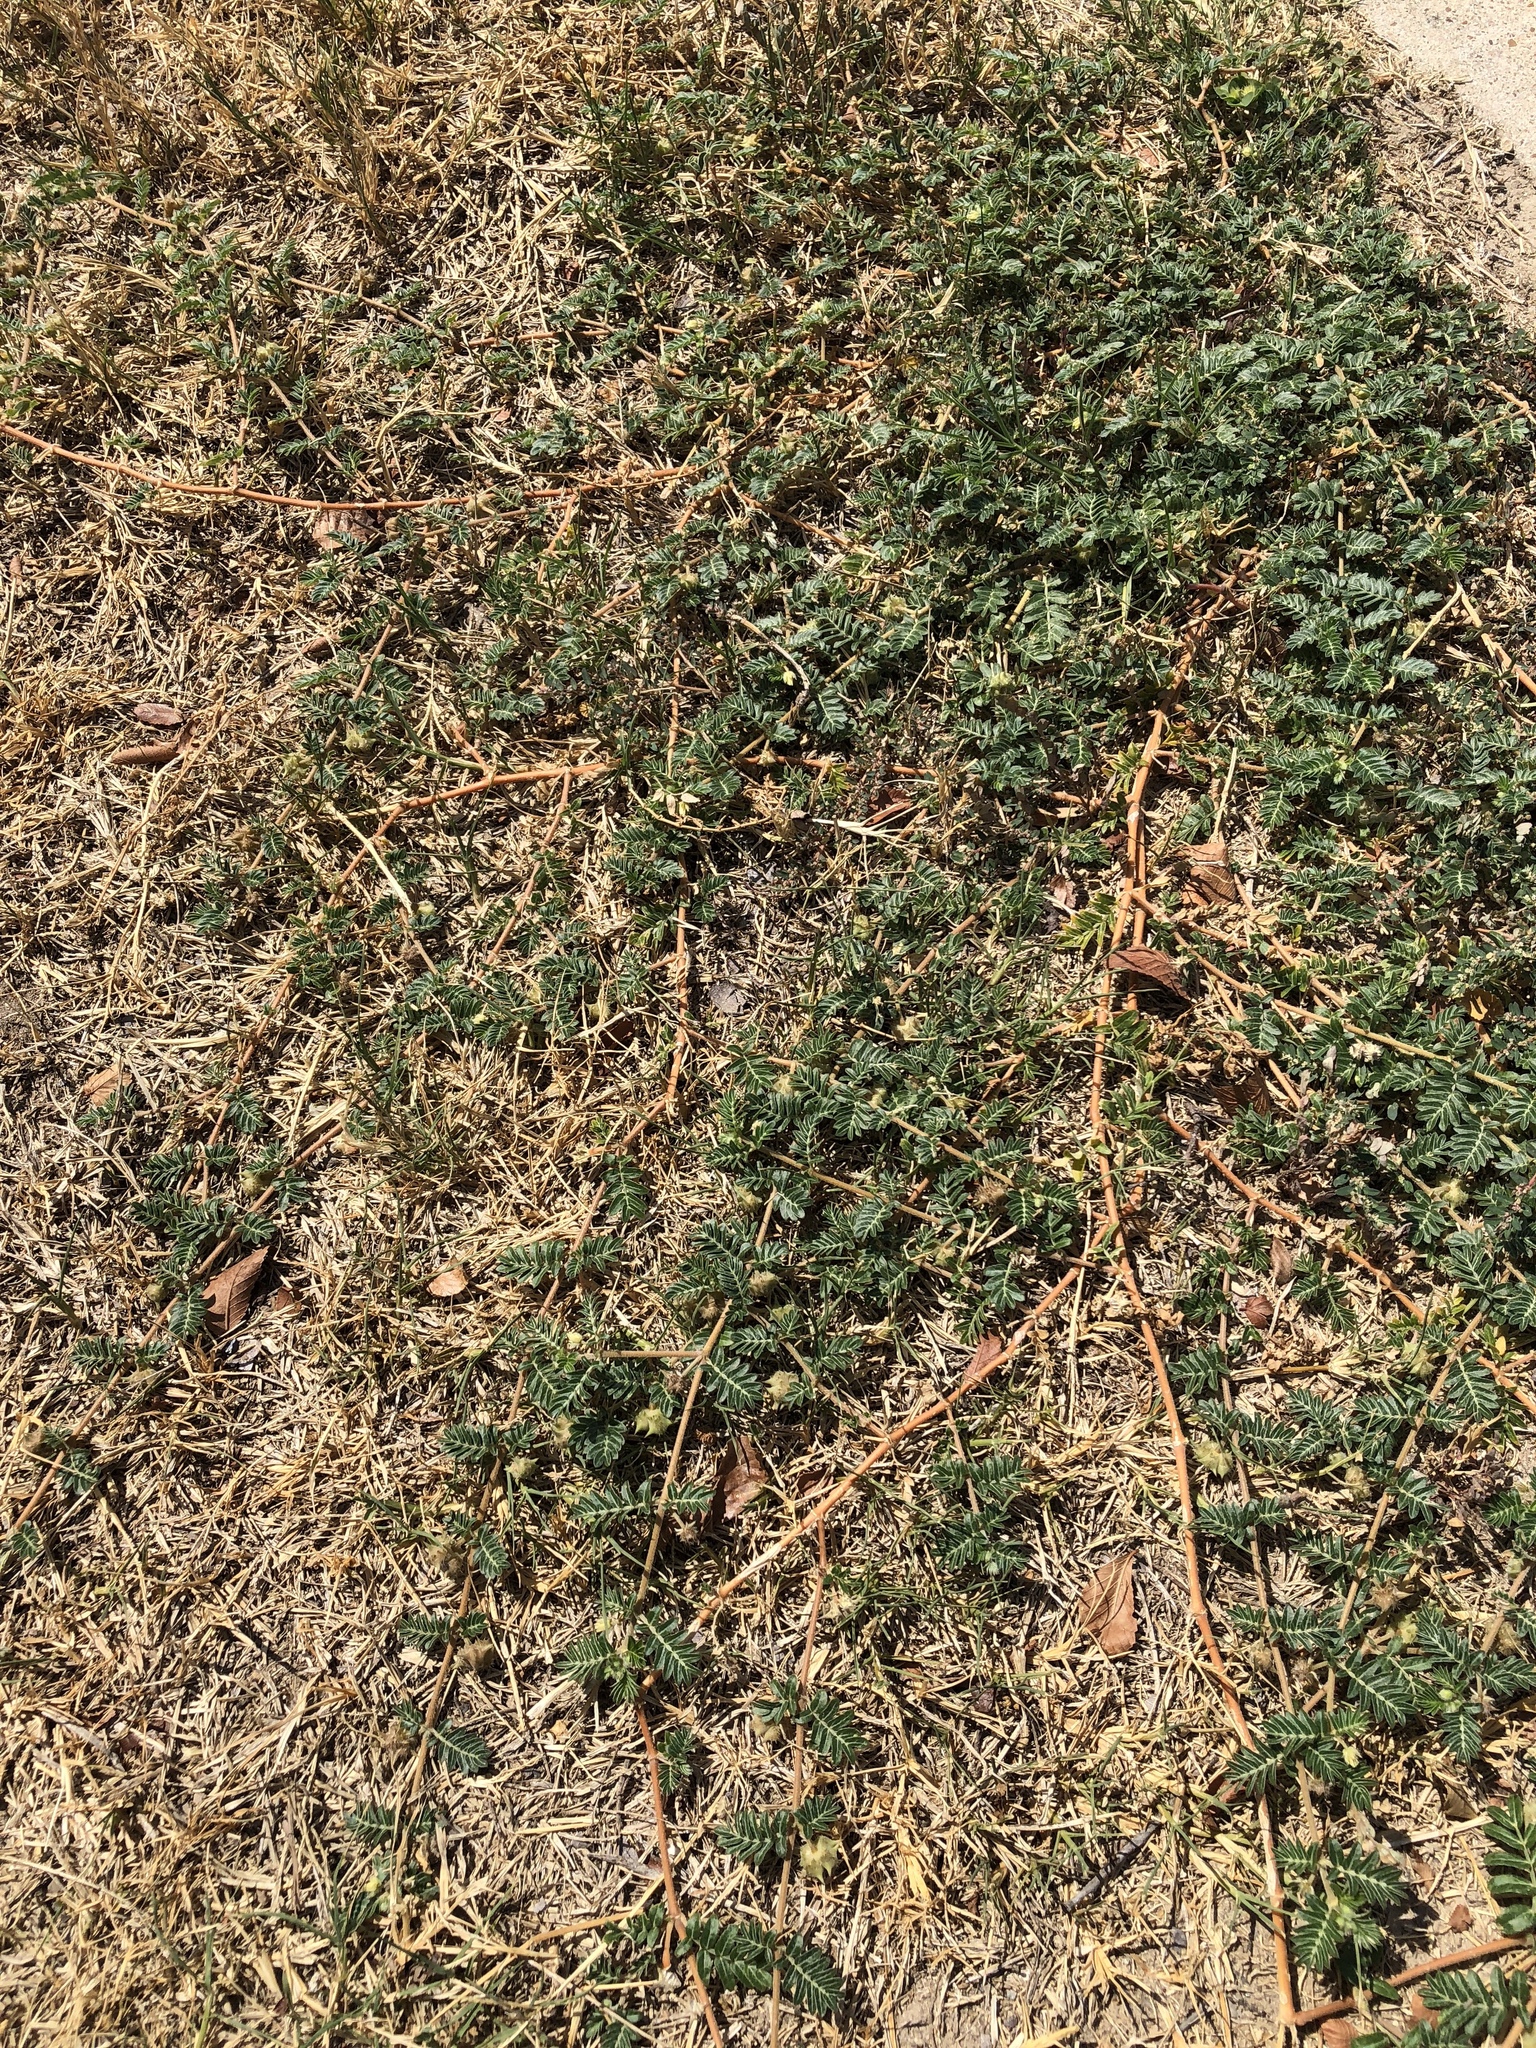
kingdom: Plantae
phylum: Tracheophyta
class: Magnoliopsida
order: Zygophyllales
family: Zygophyllaceae
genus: Tribulus
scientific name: Tribulus terrestris
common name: Puncturevine
